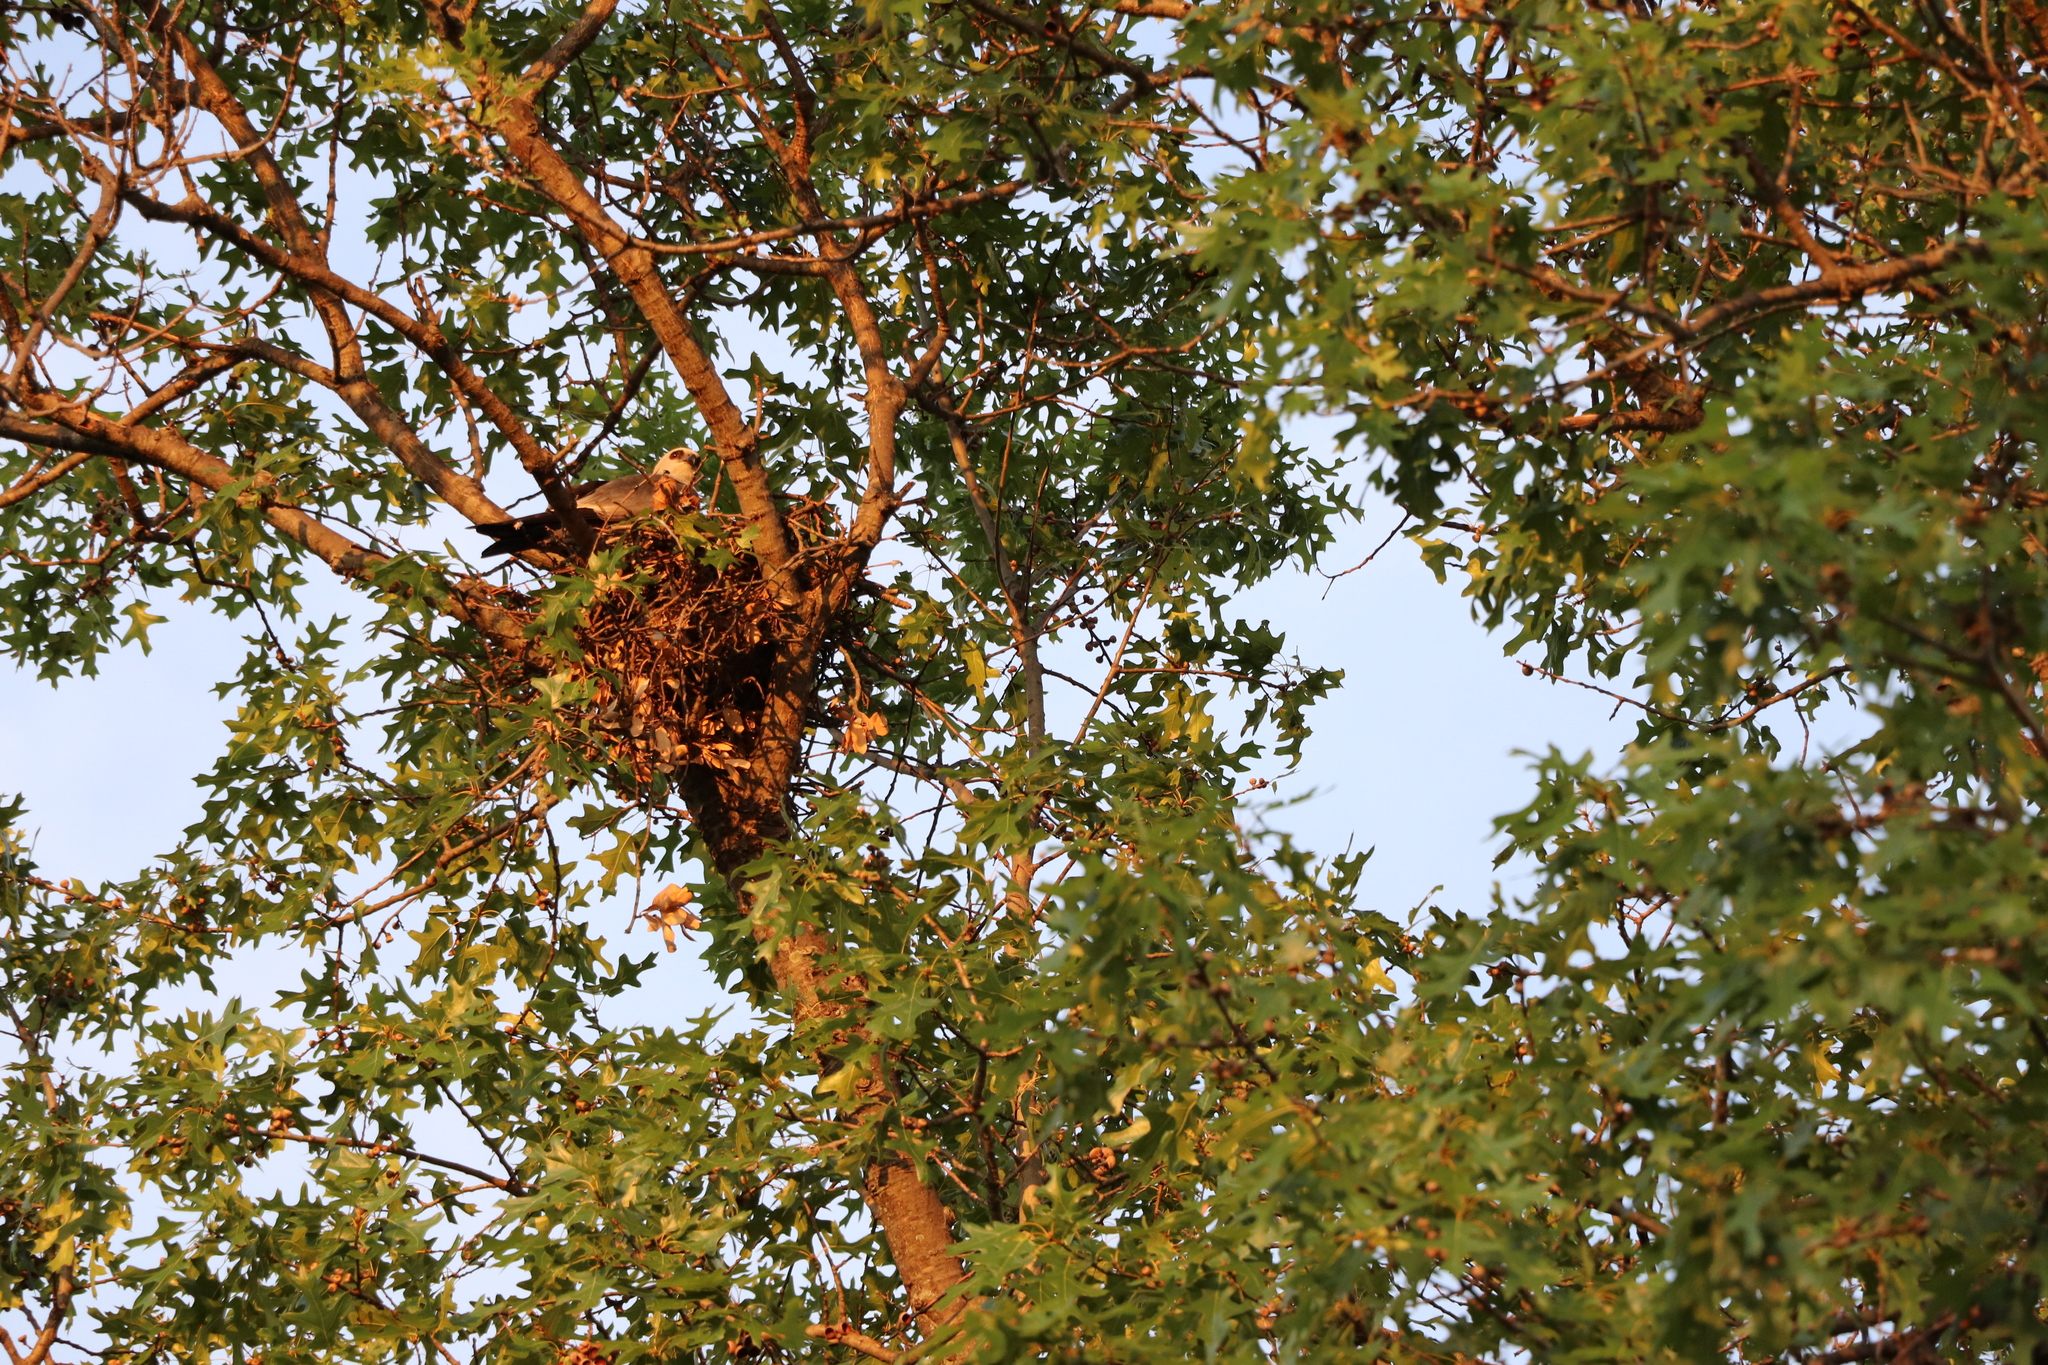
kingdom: Animalia
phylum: Chordata
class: Aves
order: Accipitriformes
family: Accipitridae
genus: Ictinia
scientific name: Ictinia mississippiensis
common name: Mississippi kite
